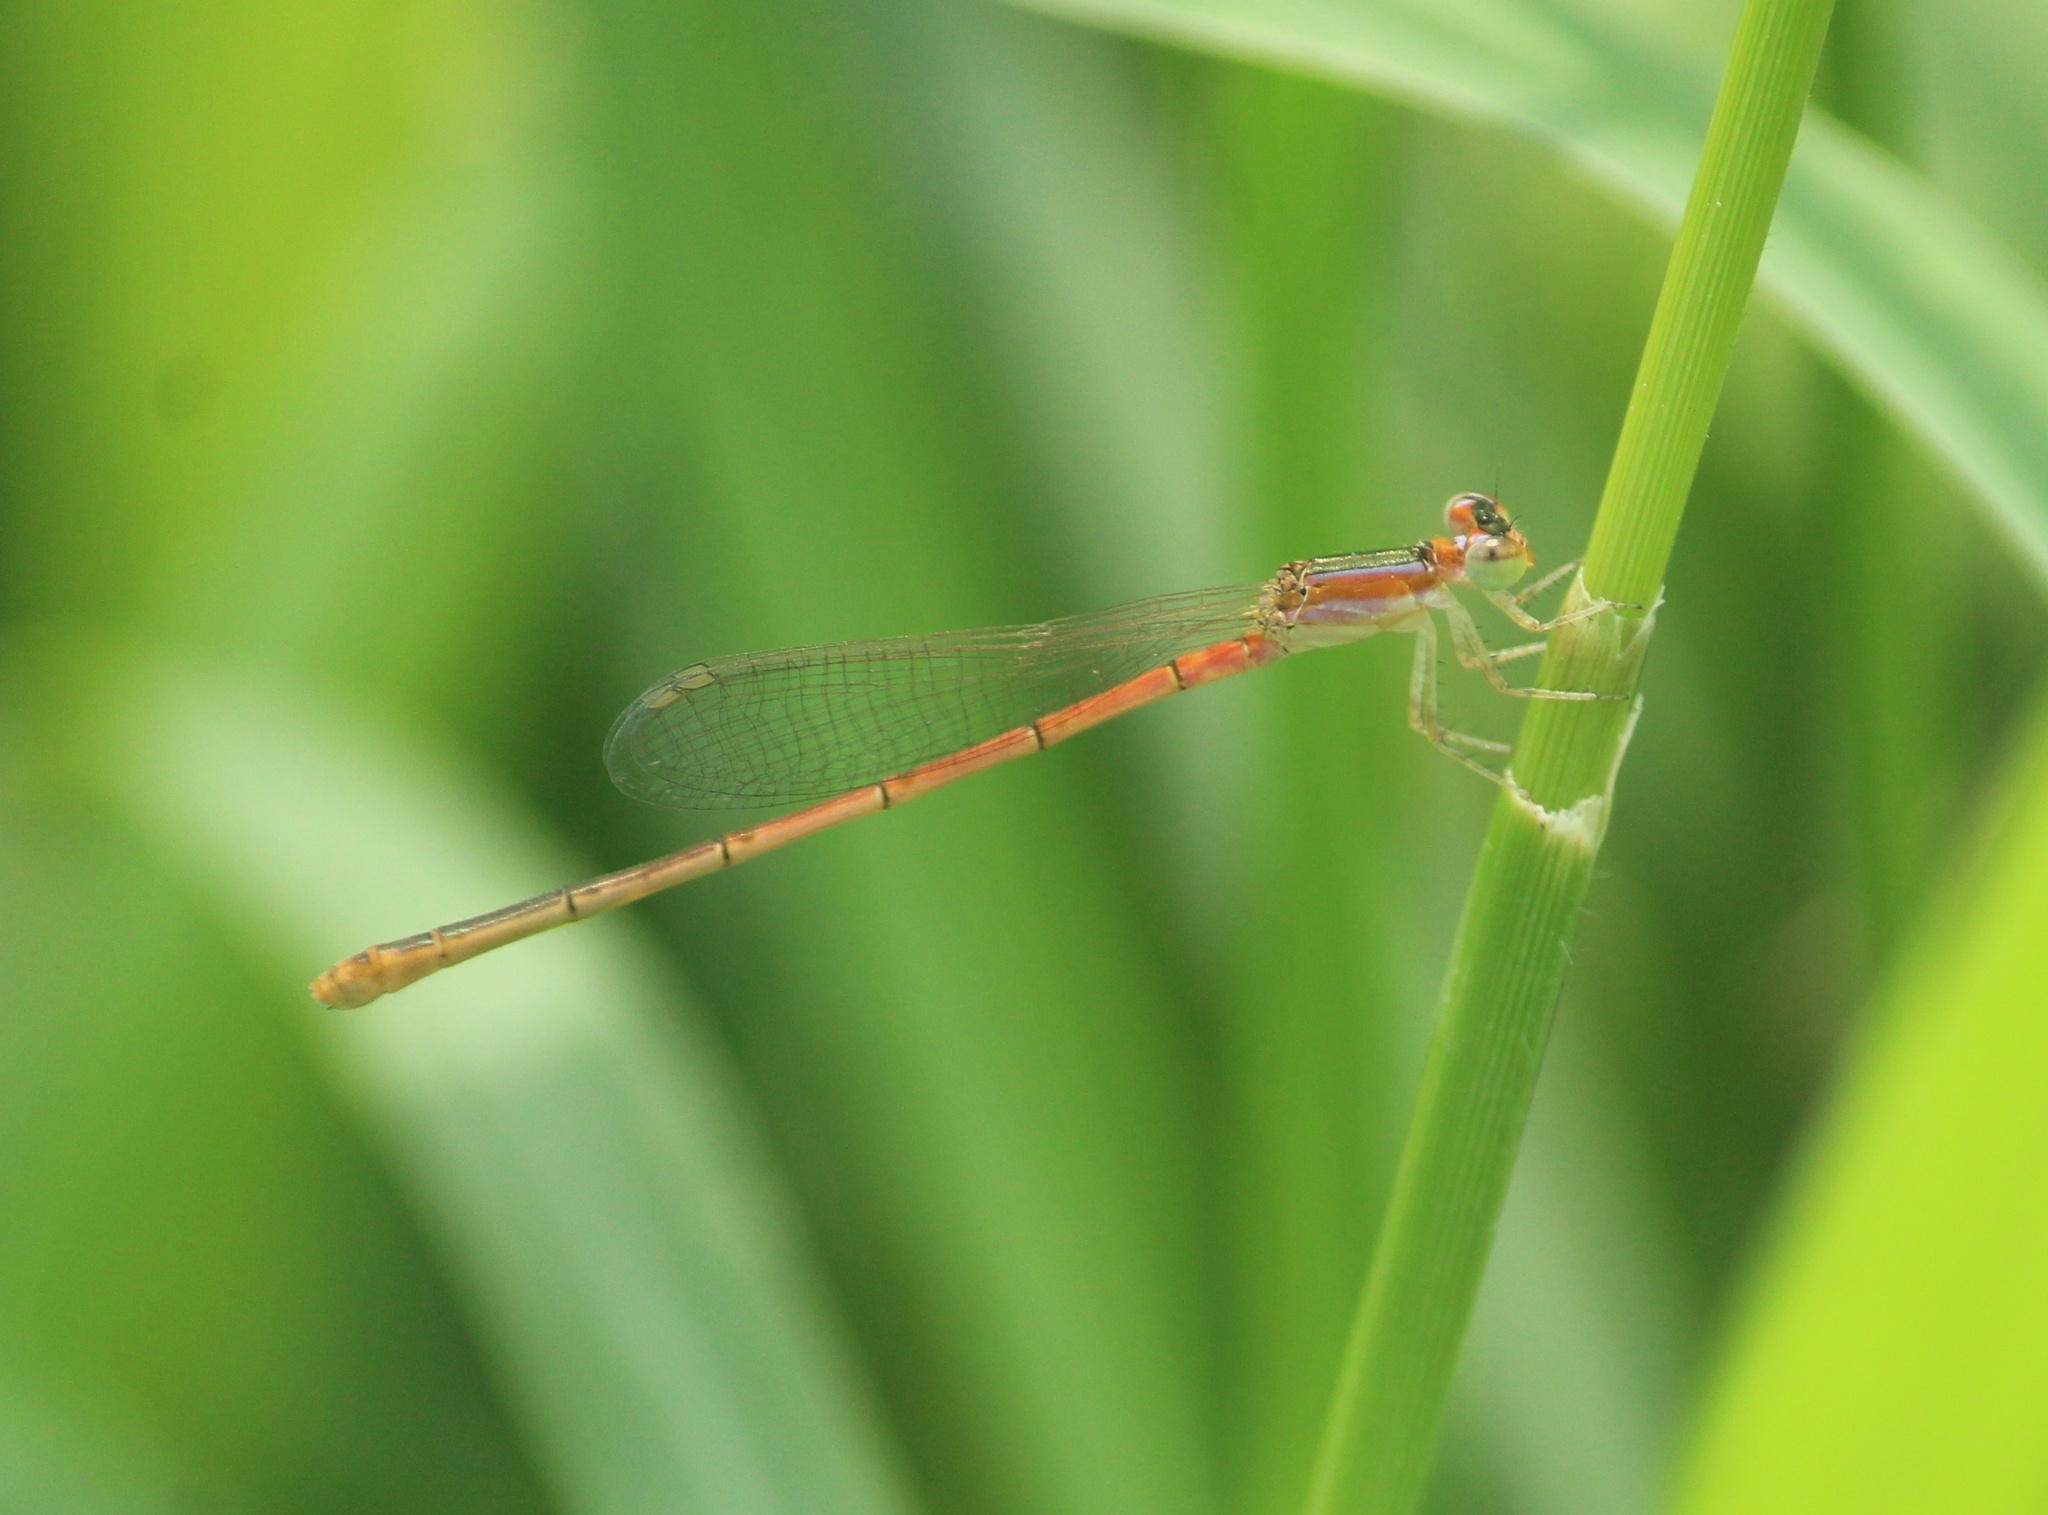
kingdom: Animalia
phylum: Arthropoda
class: Insecta
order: Odonata
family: Coenagrionidae
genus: Agriocnemis
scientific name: Agriocnemis pygmaea
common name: Pygmy wisp
